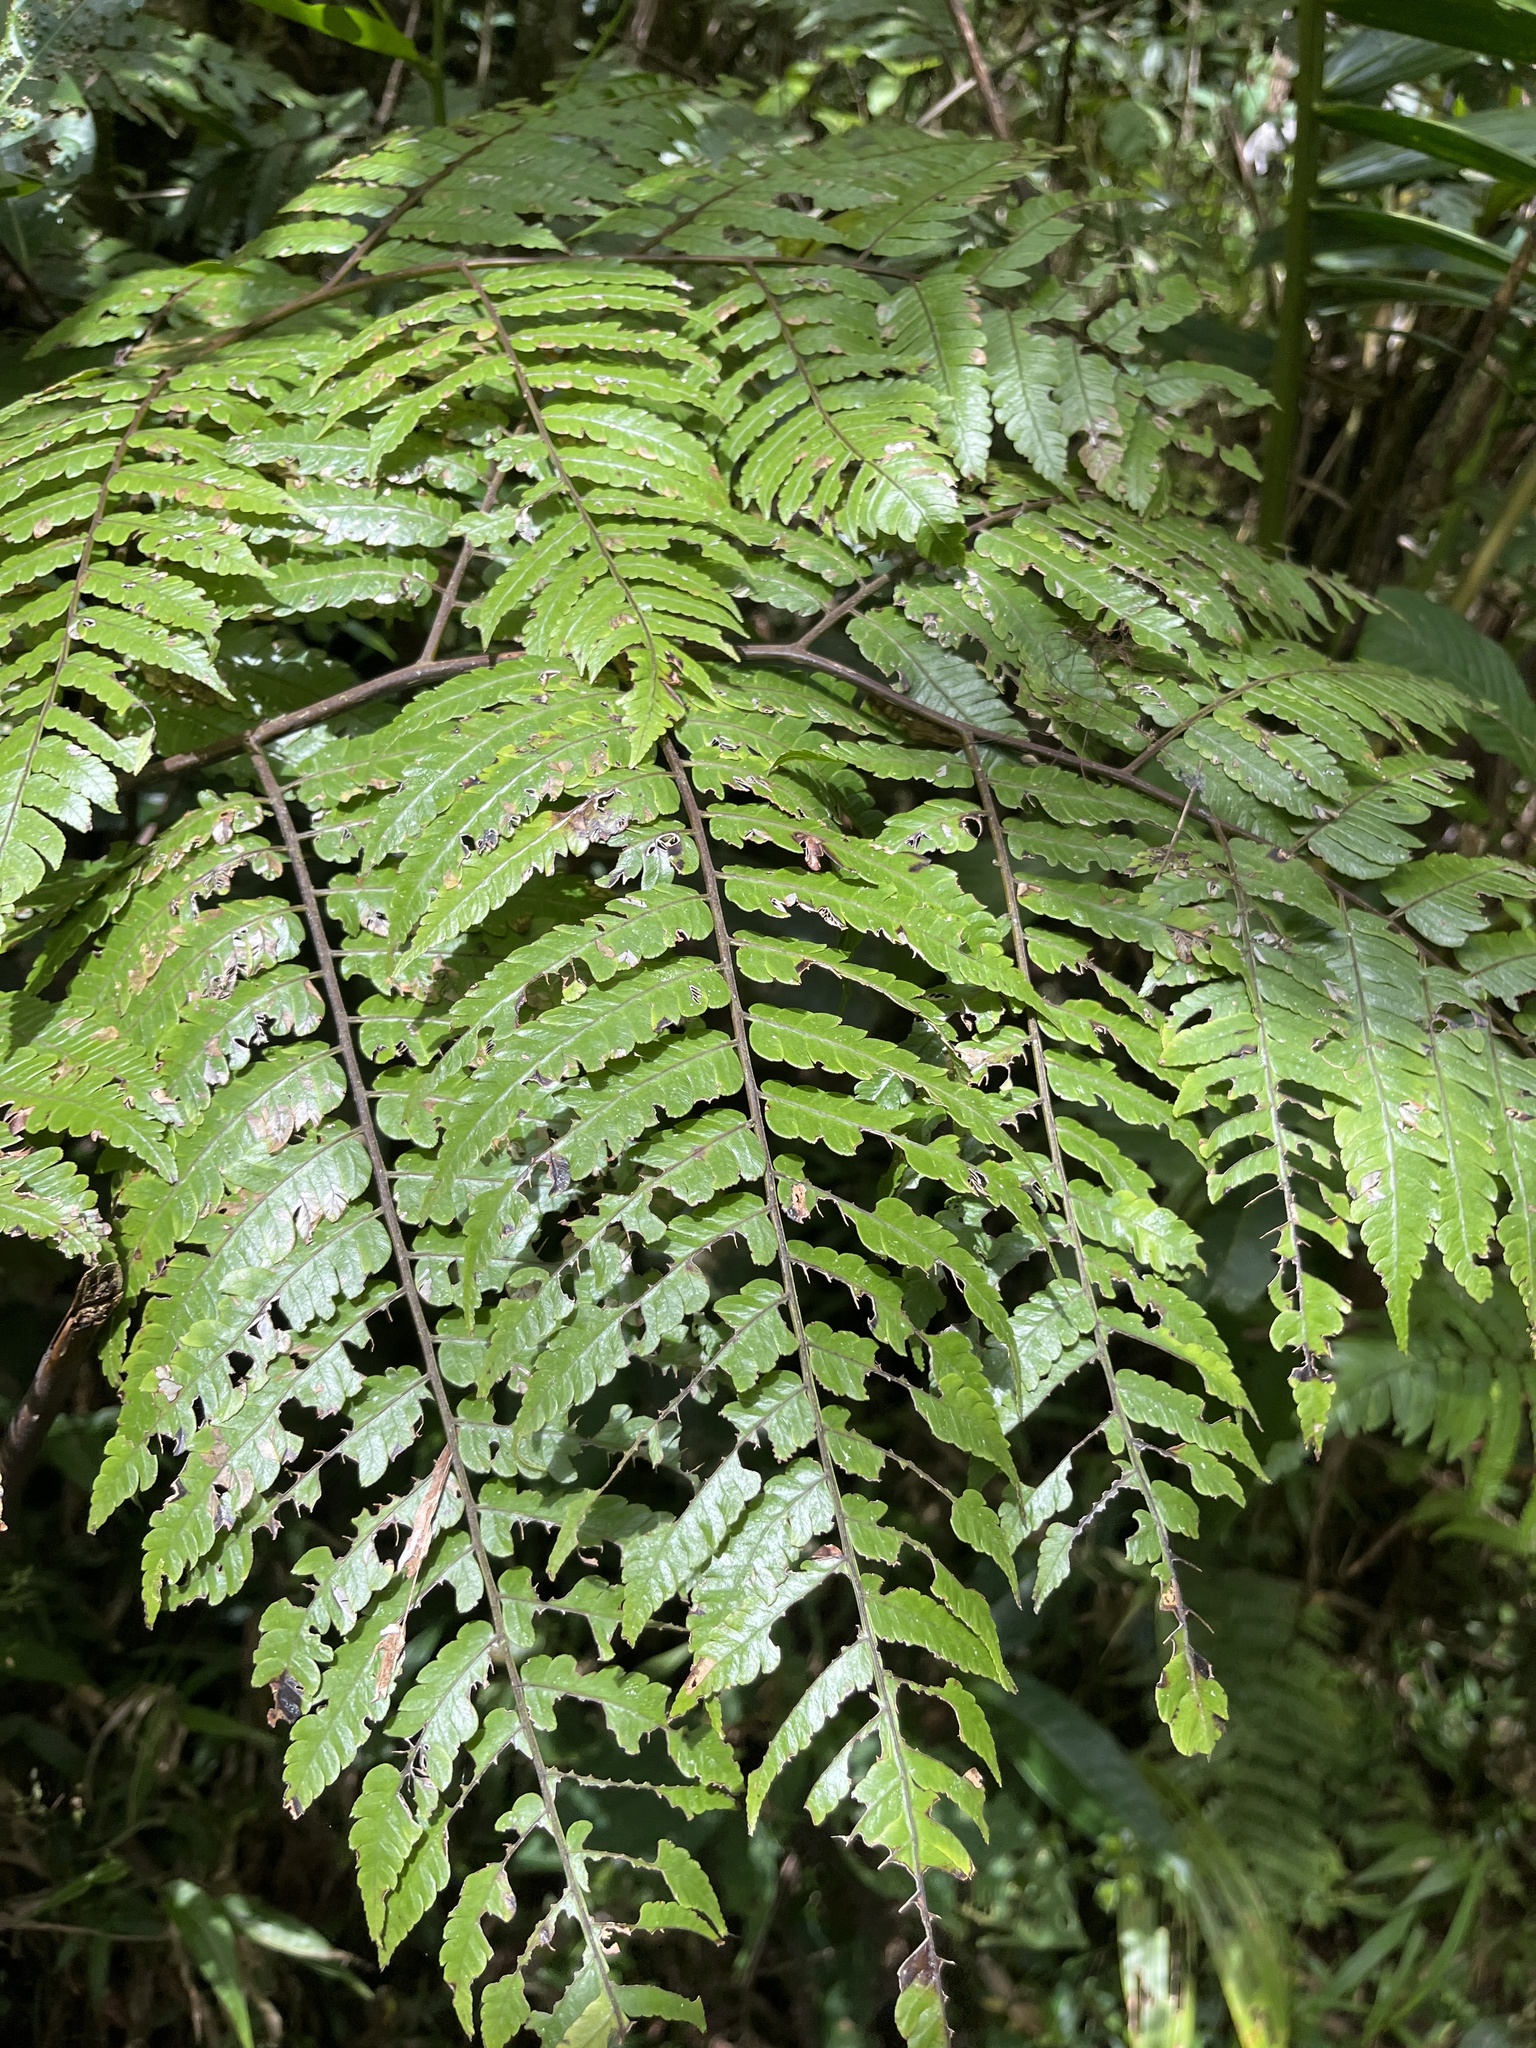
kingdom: Plantae
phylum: Tracheophyta
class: Polypodiopsida
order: Cyatheales
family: Cyatheaceae
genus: Cyathea
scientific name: Cyathea borinquena
